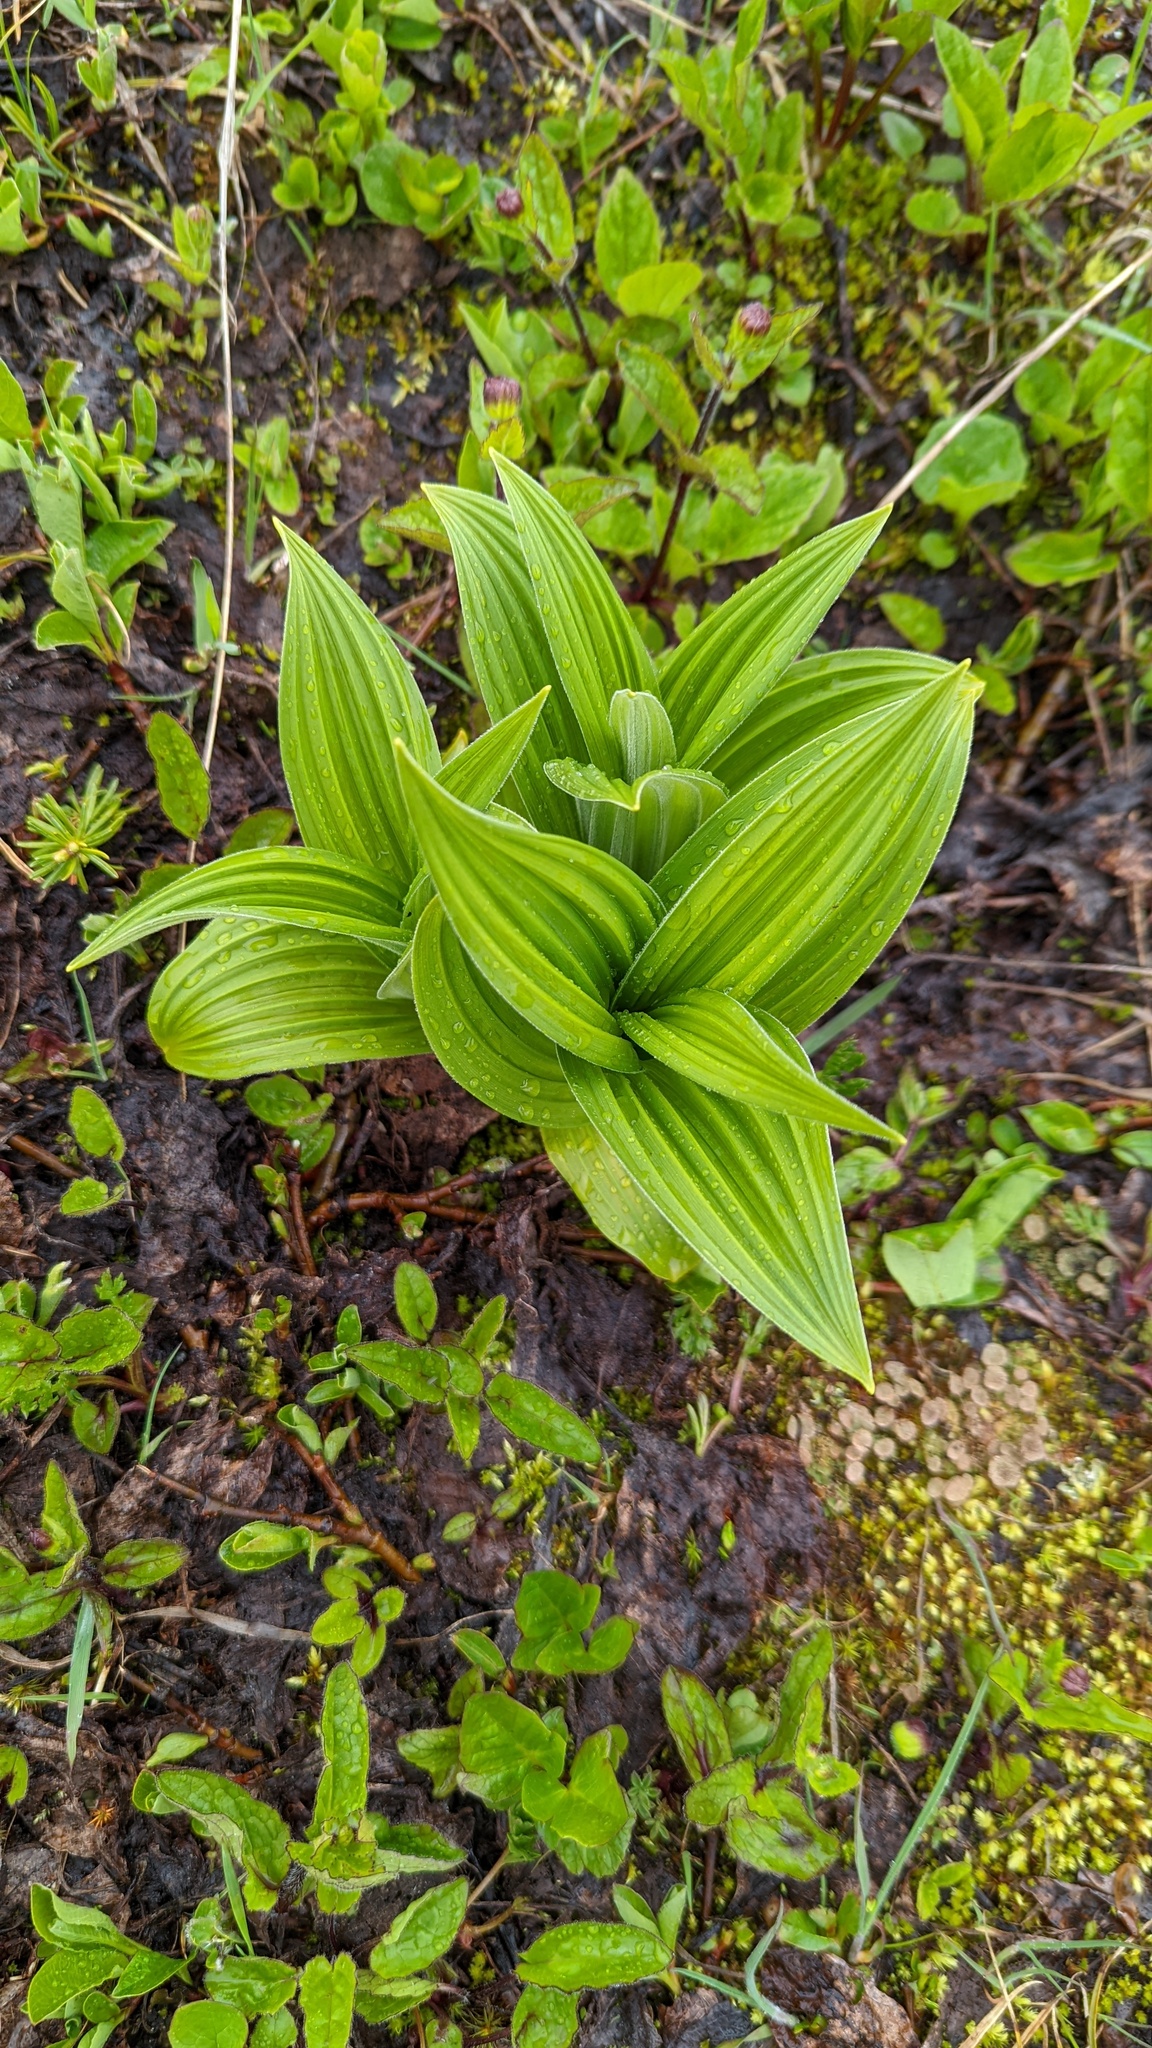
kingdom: Plantae
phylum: Tracheophyta
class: Liliopsida
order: Liliales
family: Melanthiaceae
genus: Veratrum
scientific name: Veratrum viride
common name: American false hellebore
